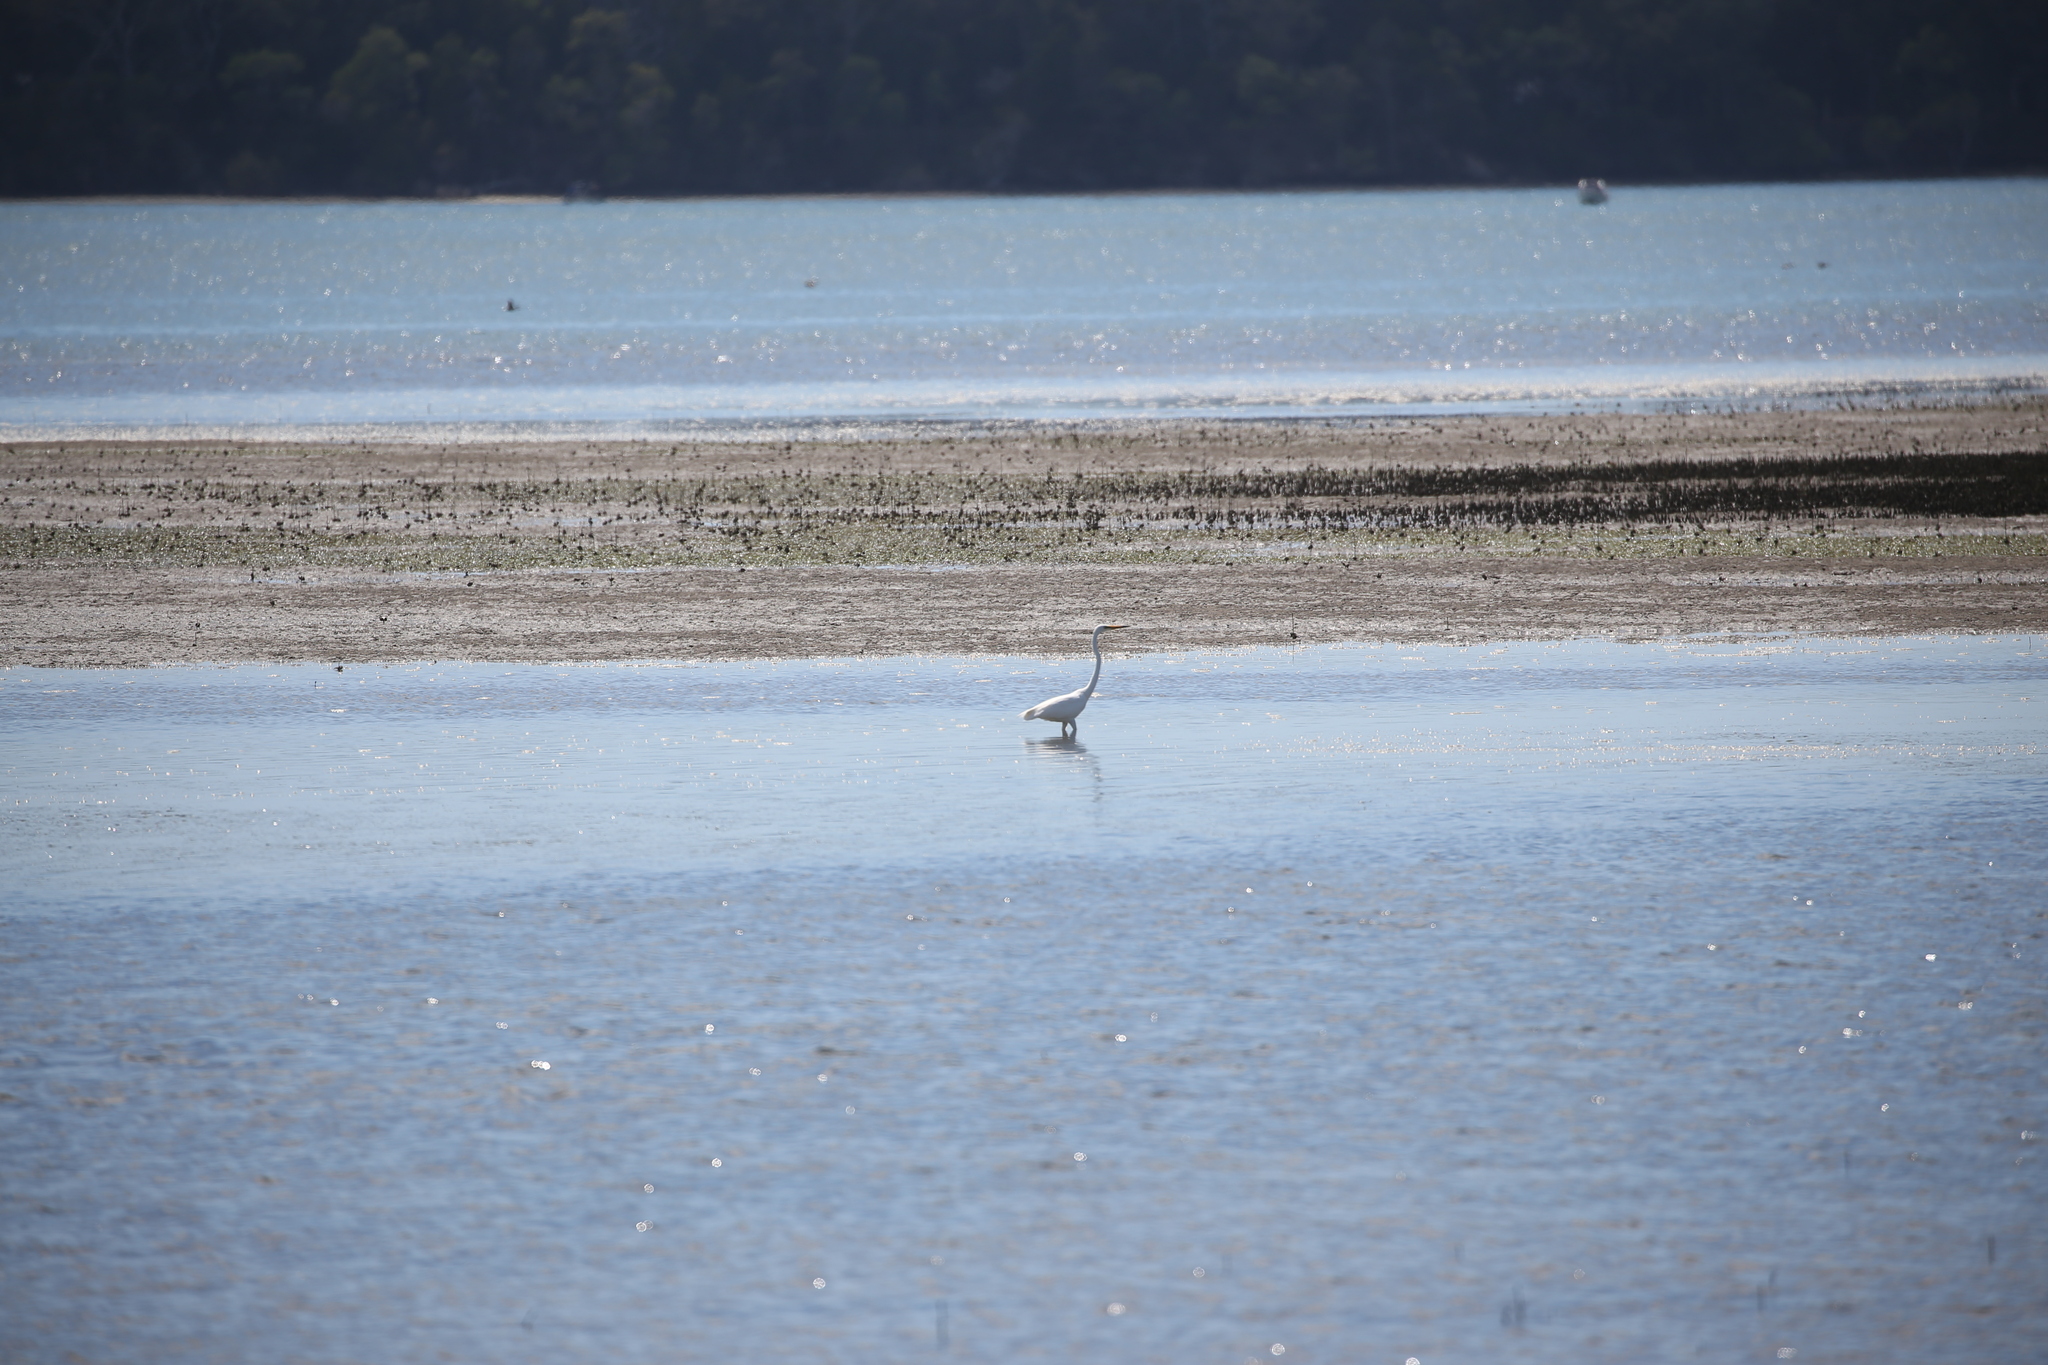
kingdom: Animalia
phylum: Chordata
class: Aves
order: Pelecaniformes
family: Ardeidae
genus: Ardea
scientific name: Ardea modesta
